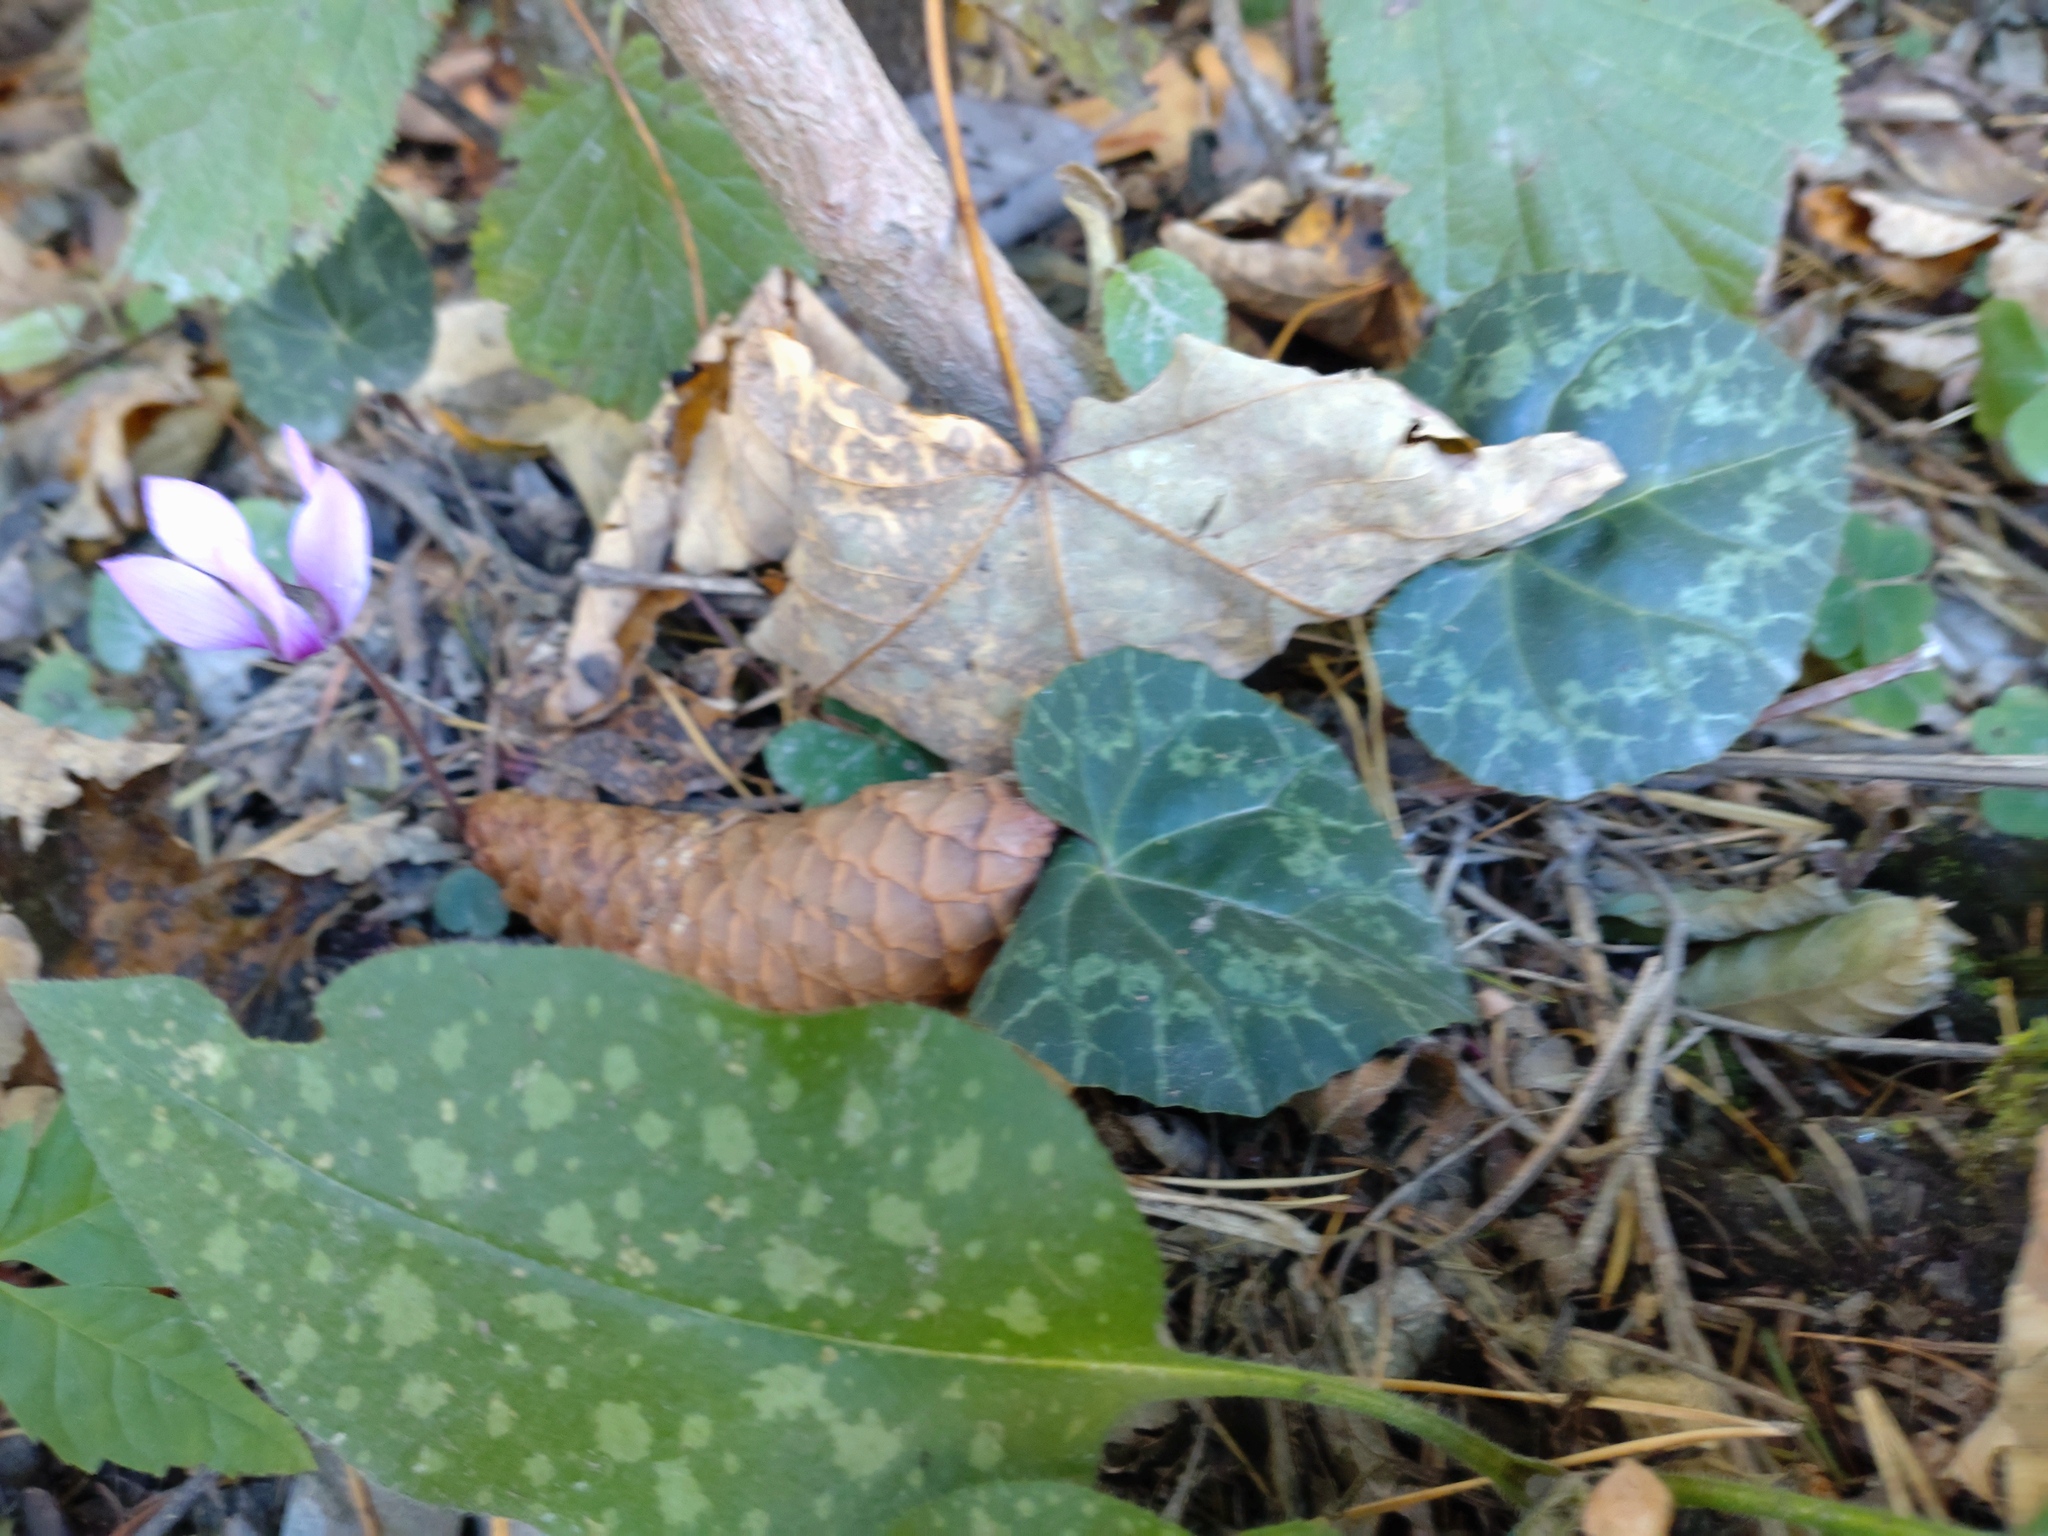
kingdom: Plantae
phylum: Tracheophyta
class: Magnoliopsida
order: Ericales
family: Primulaceae
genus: Cyclamen
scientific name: Cyclamen purpurascens
